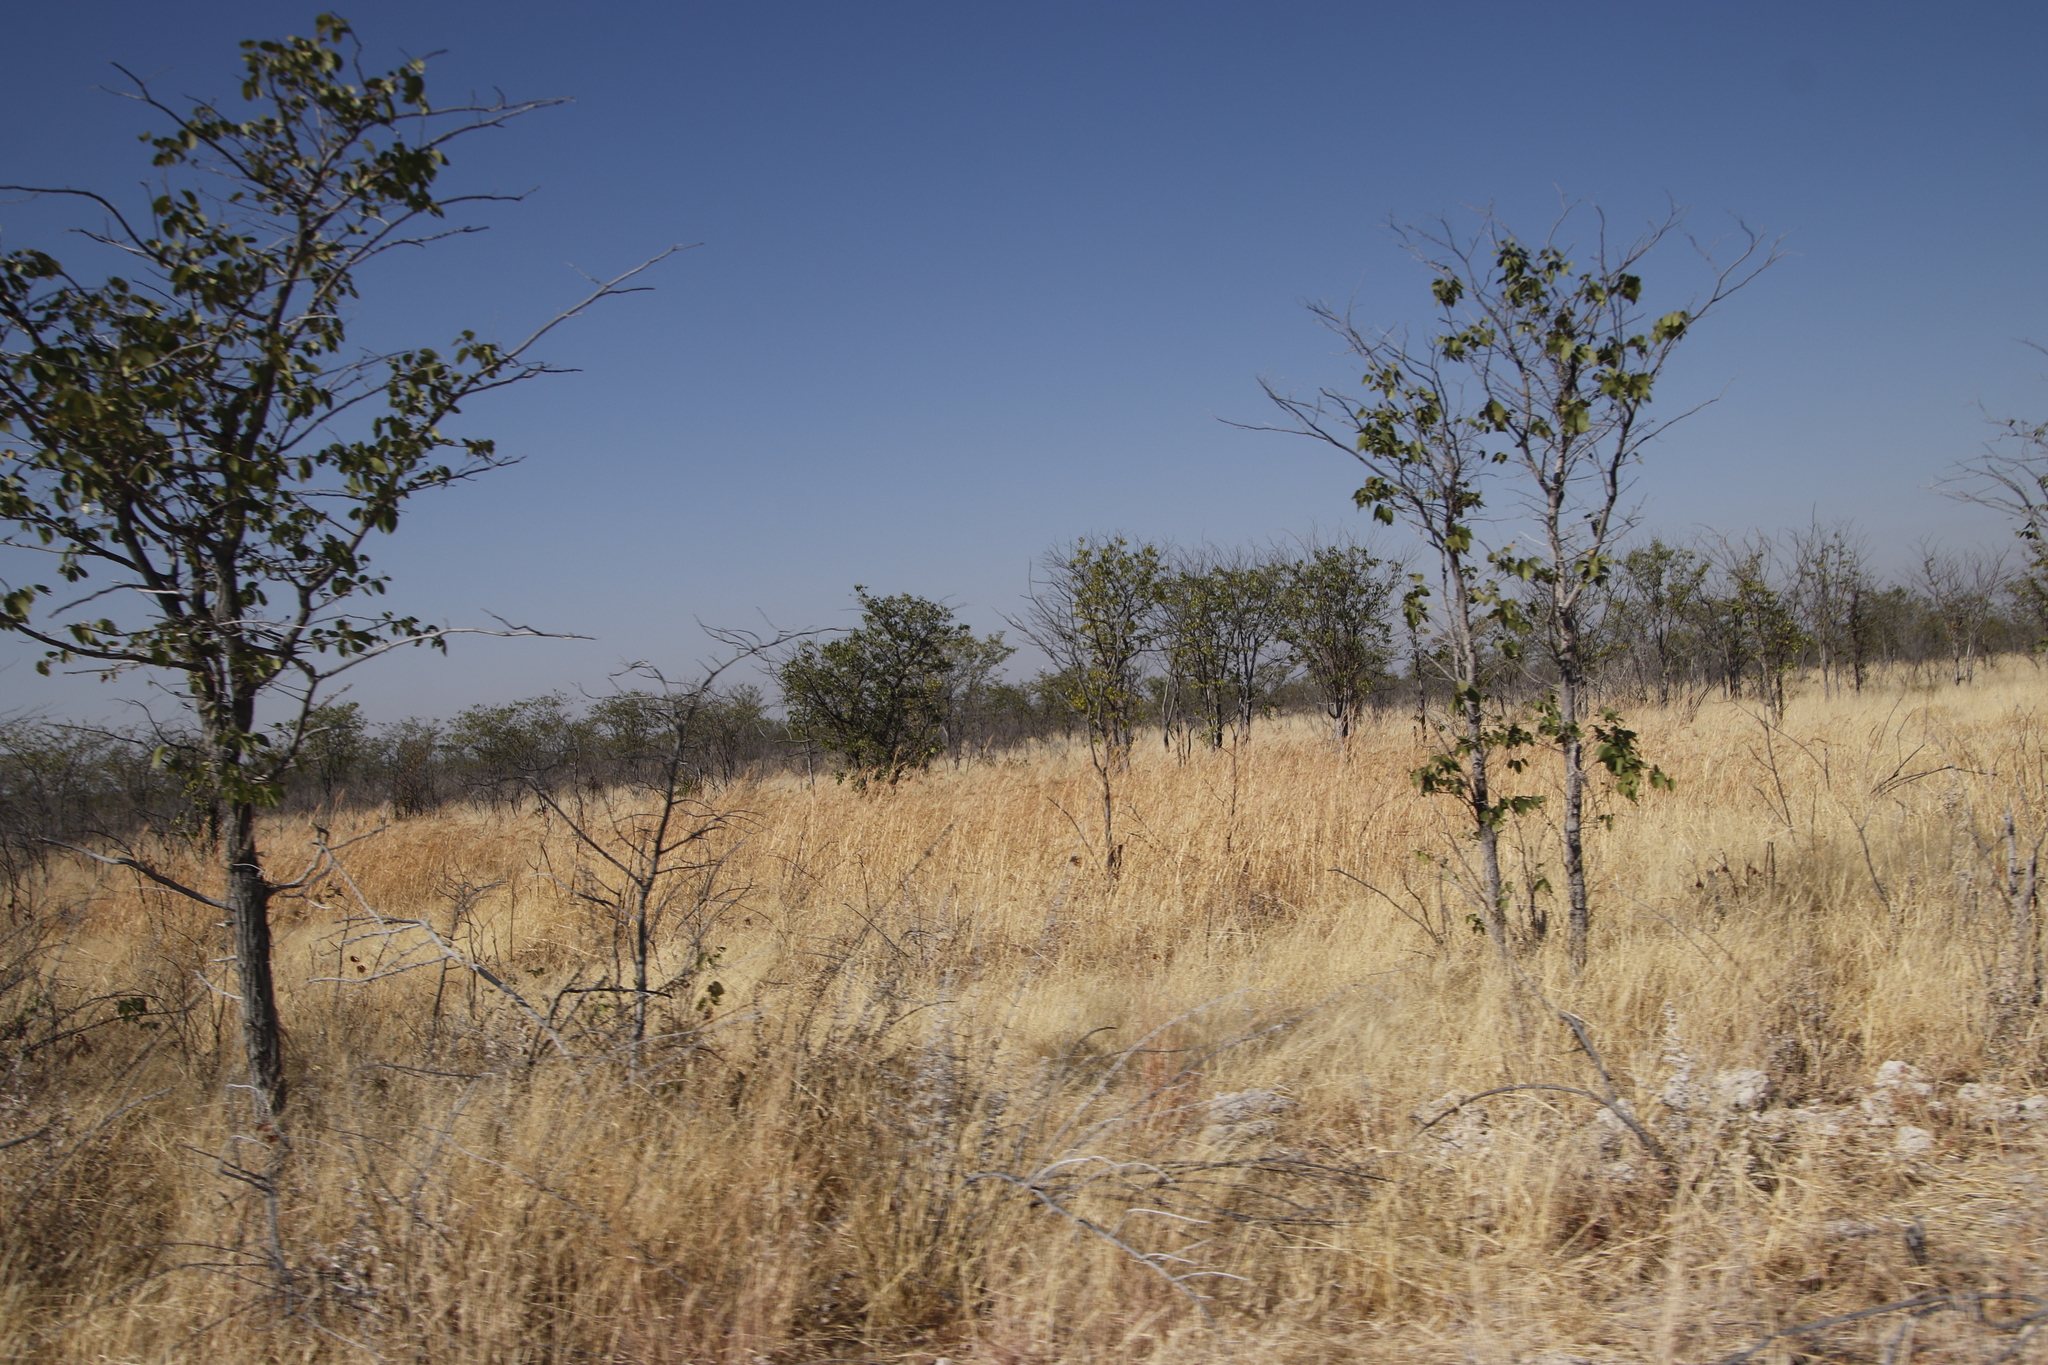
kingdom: Plantae
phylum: Tracheophyta
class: Magnoliopsida
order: Fabales
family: Fabaceae
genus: Colophospermum
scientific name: Colophospermum mopane
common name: Mopane
